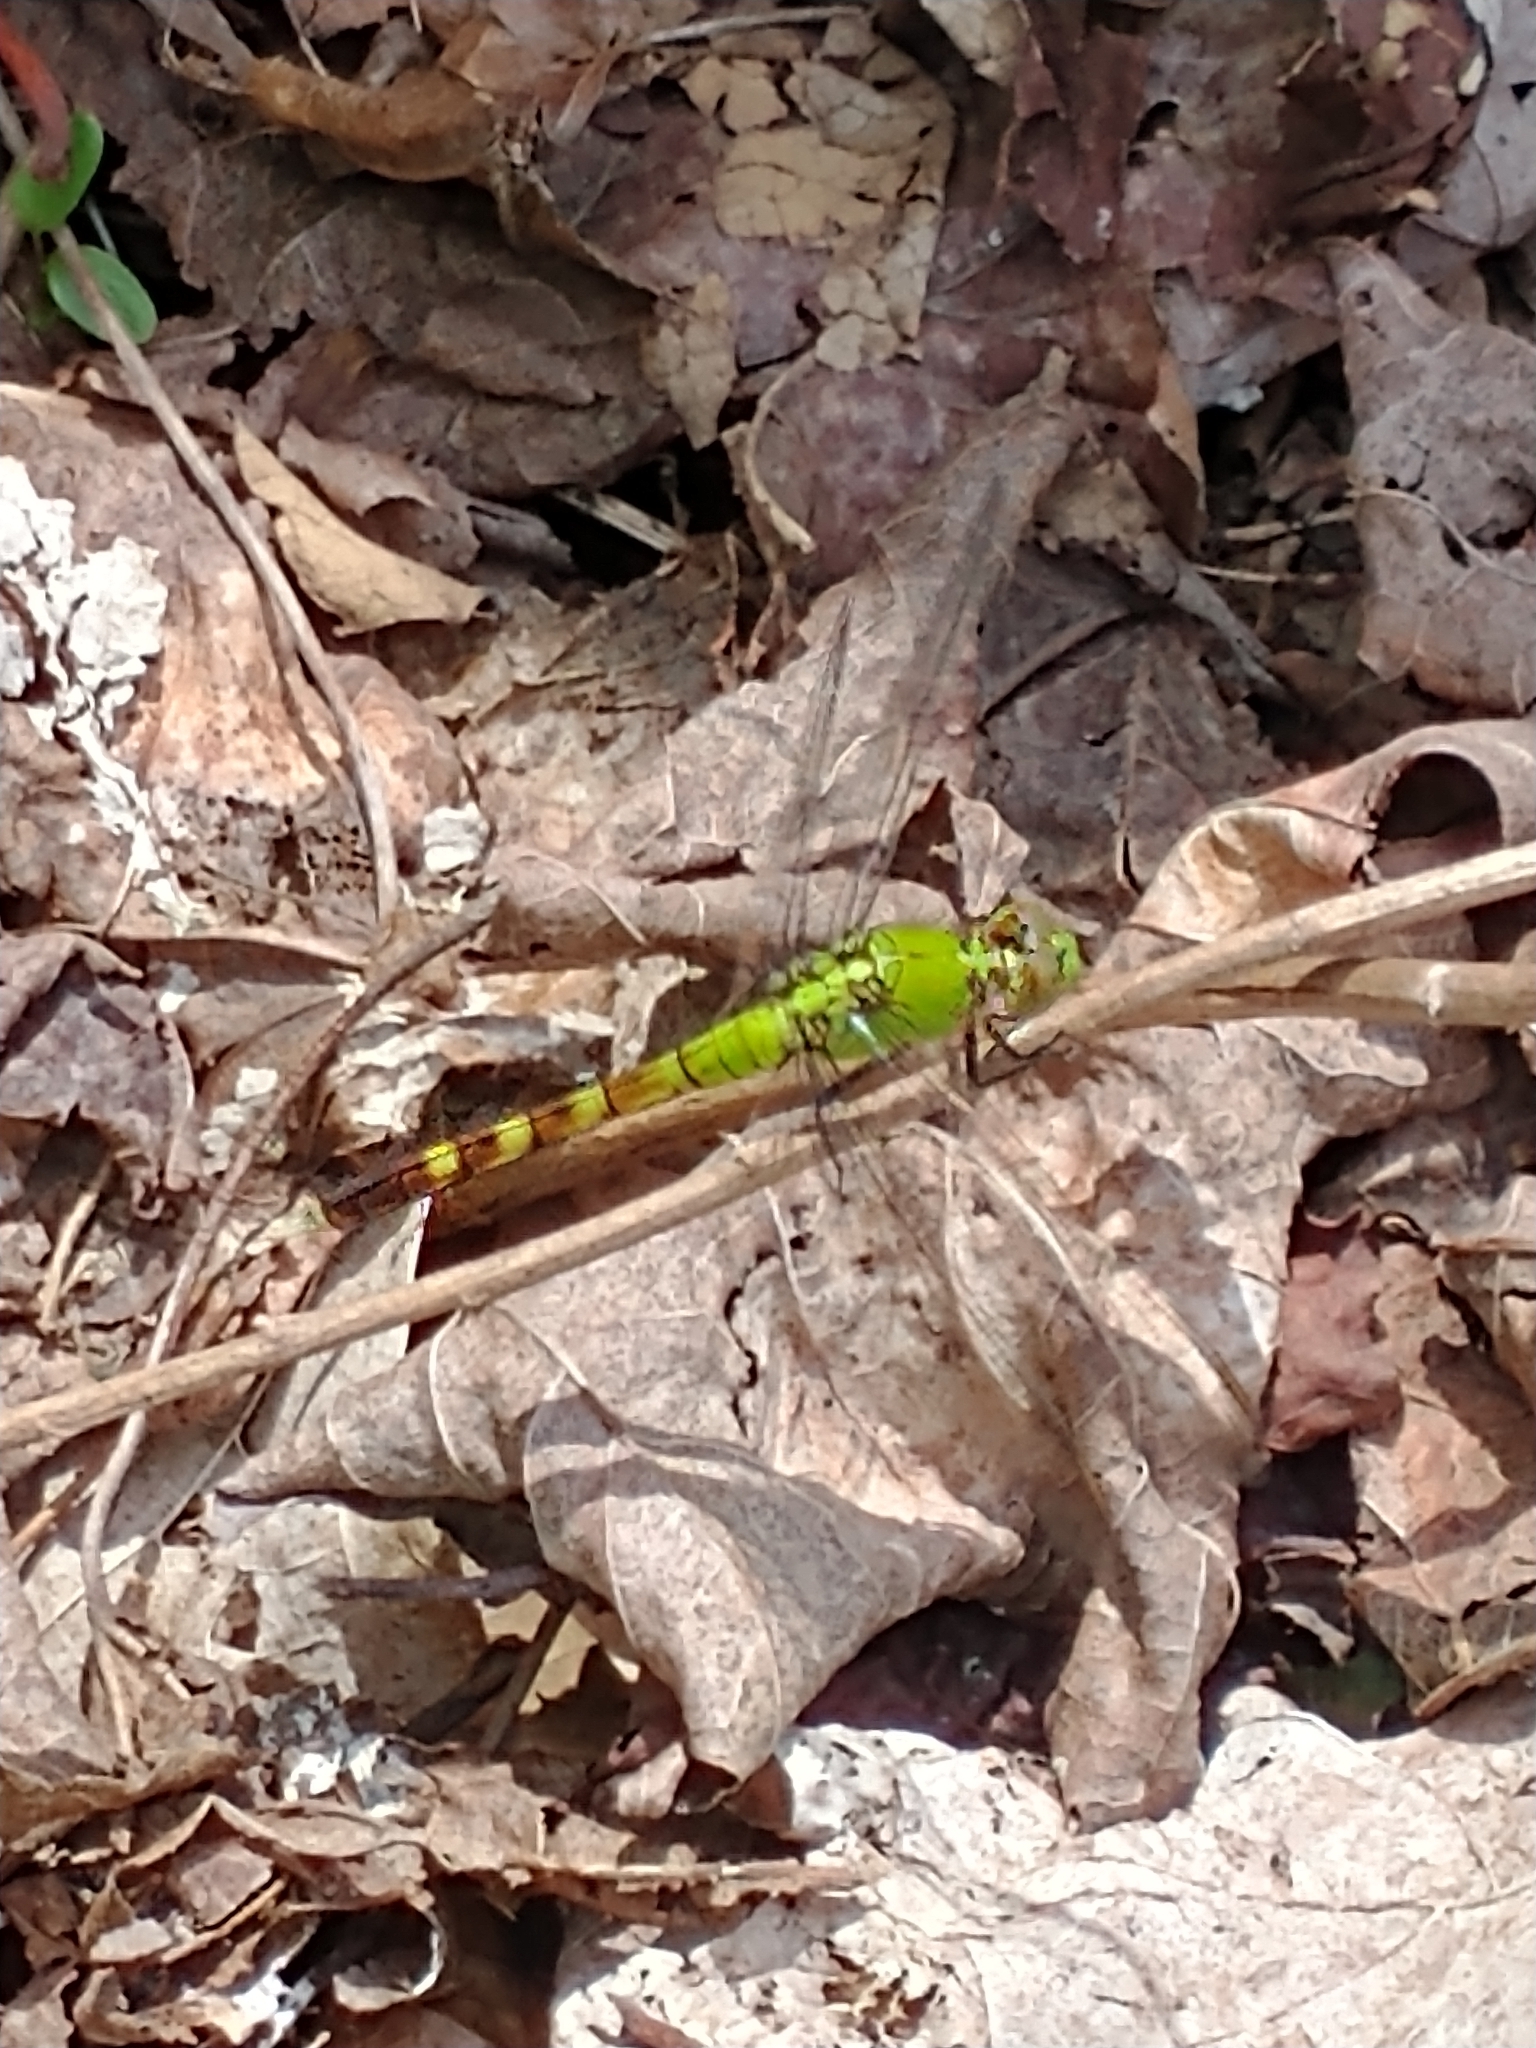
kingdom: Animalia
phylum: Arthropoda
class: Insecta
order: Odonata
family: Libellulidae
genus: Erythemis
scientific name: Erythemis simplicicollis
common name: Eastern pondhawk
